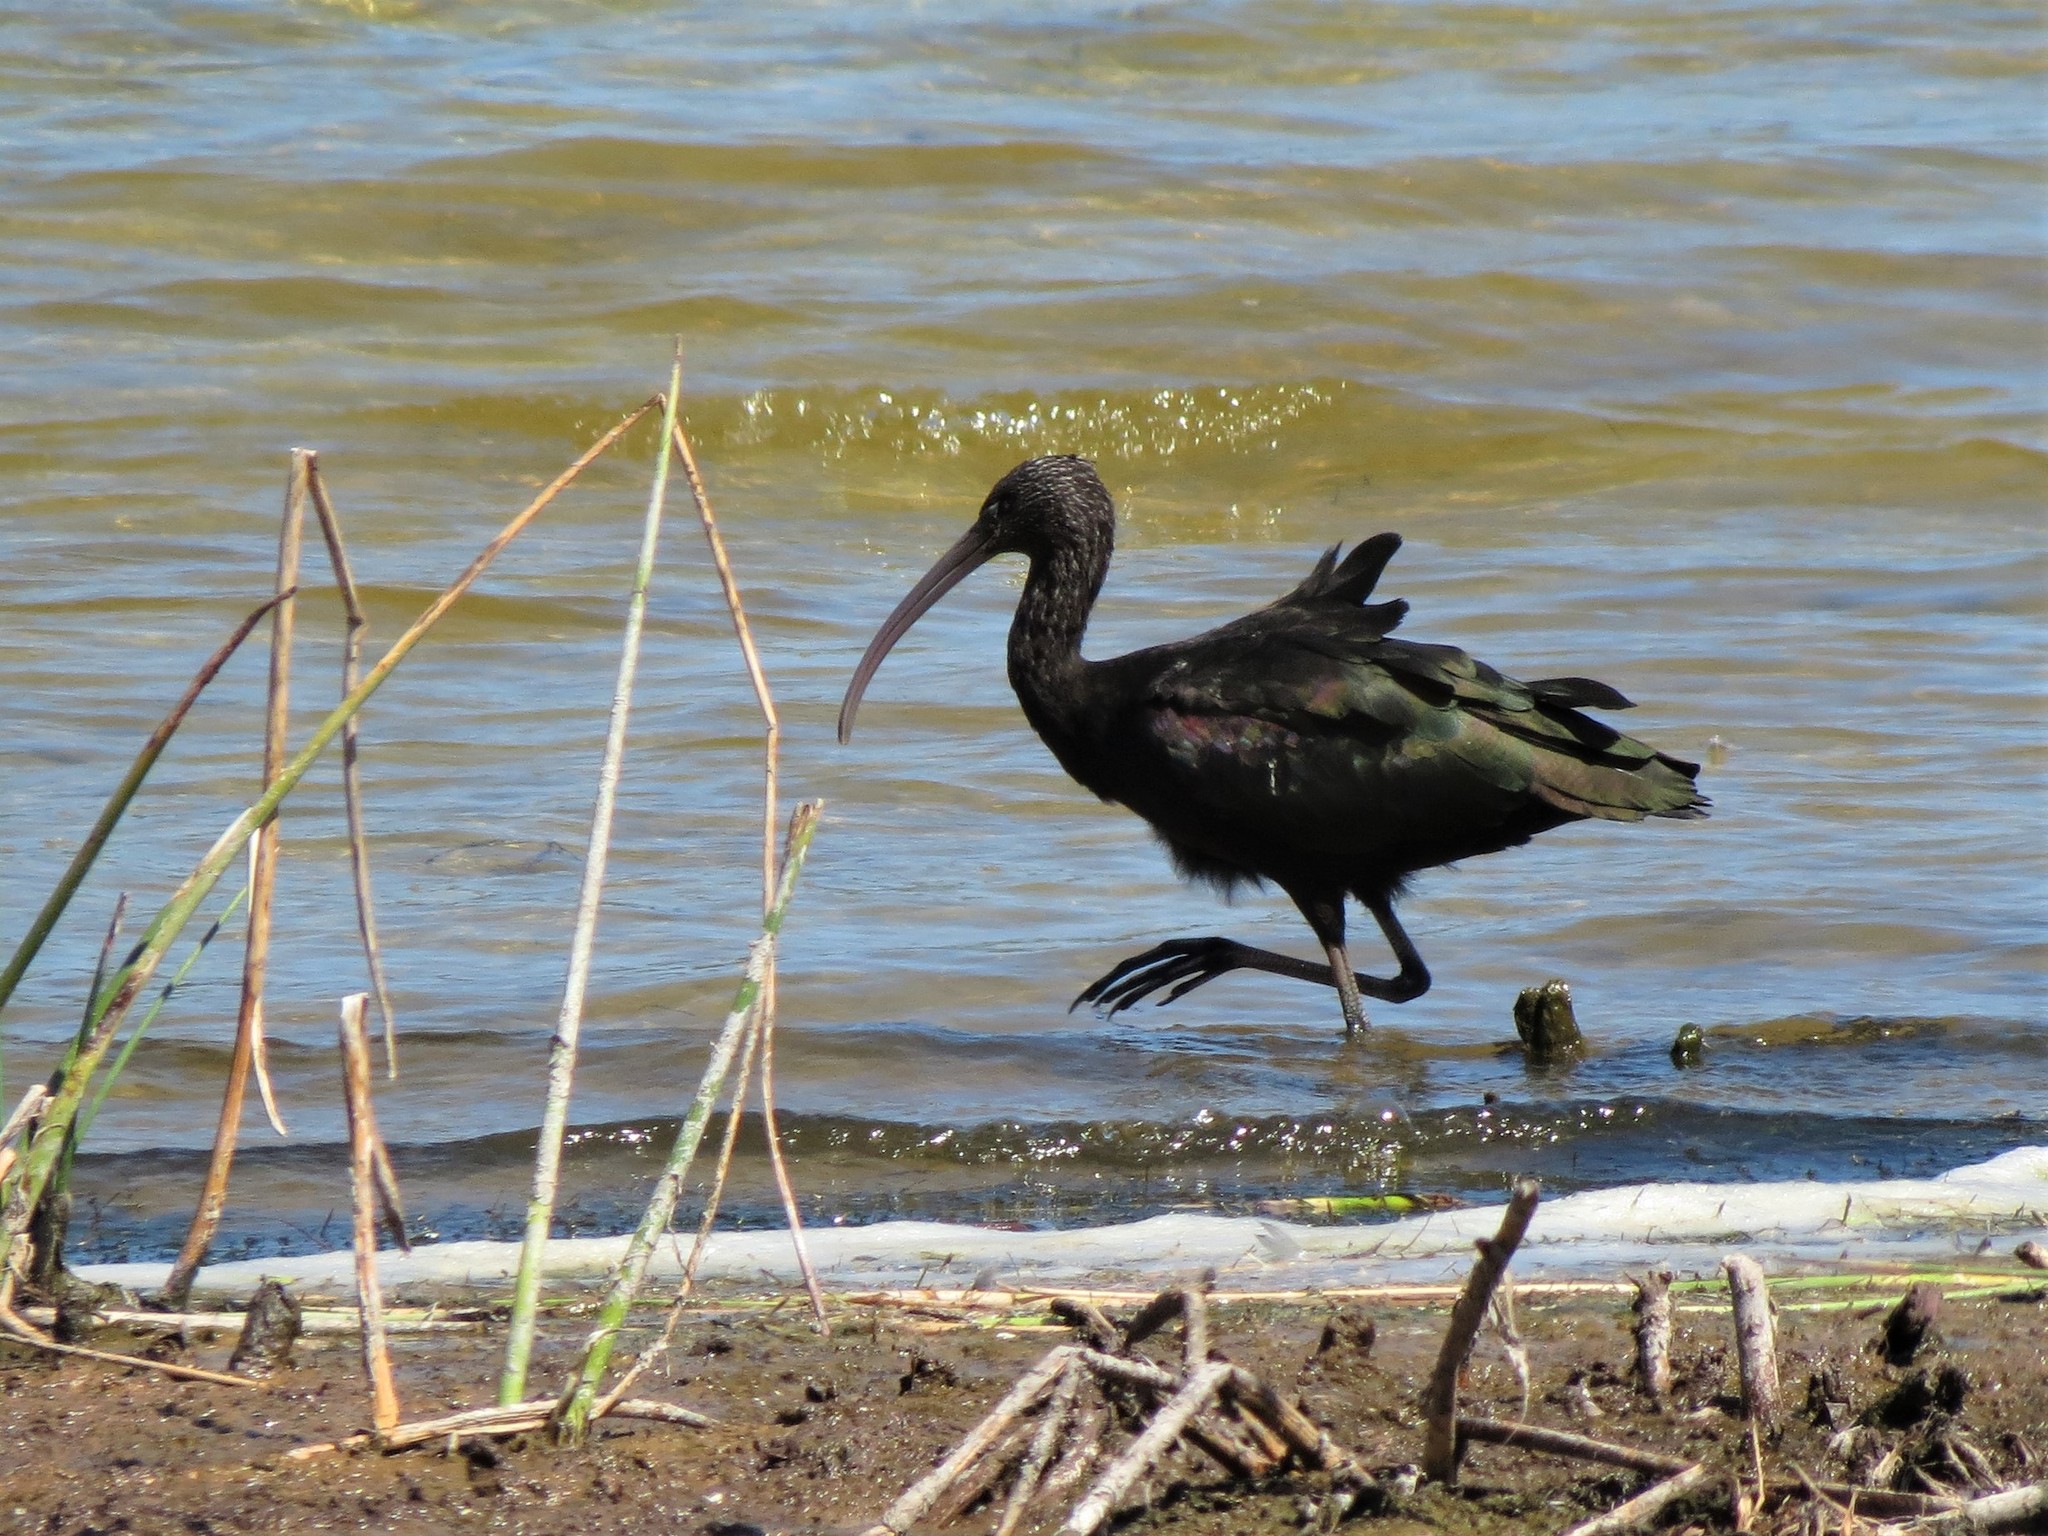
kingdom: Animalia
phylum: Chordata
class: Aves
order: Pelecaniformes
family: Threskiornithidae
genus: Plegadis
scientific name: Plegadis falcinellus
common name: Glossy ibis
